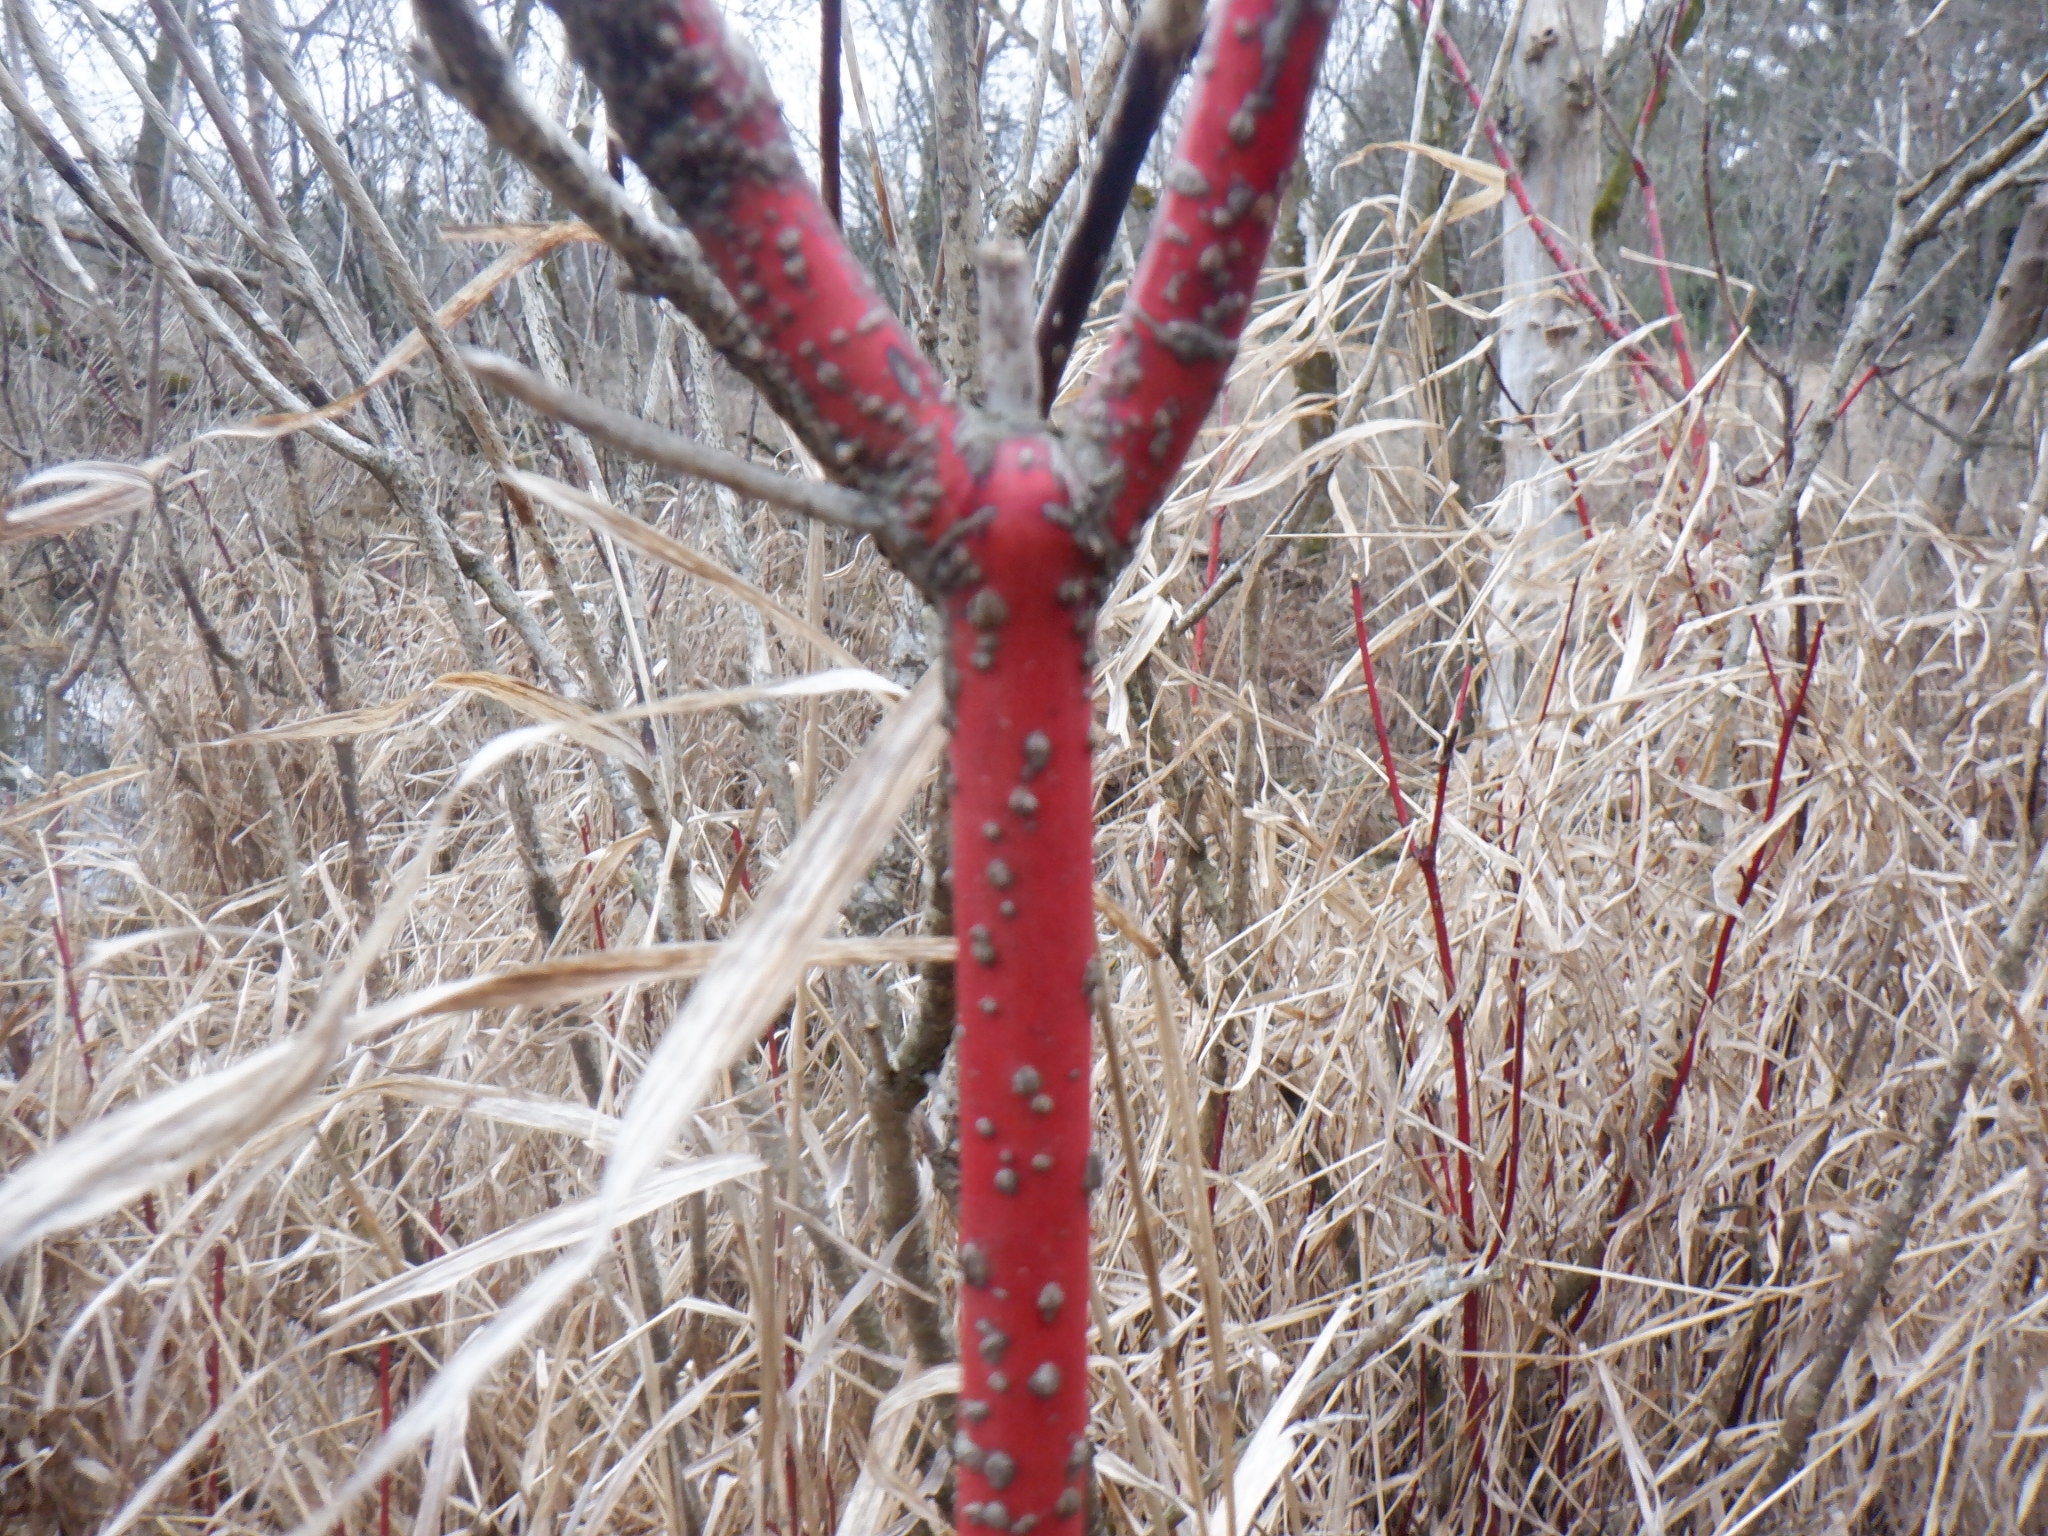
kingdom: Plantae
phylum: Tracheophyta
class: Magnoliopsida
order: Cornales
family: Cornaceae
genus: Cornus
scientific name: Cornus sericea
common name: Red-osier dogwood
